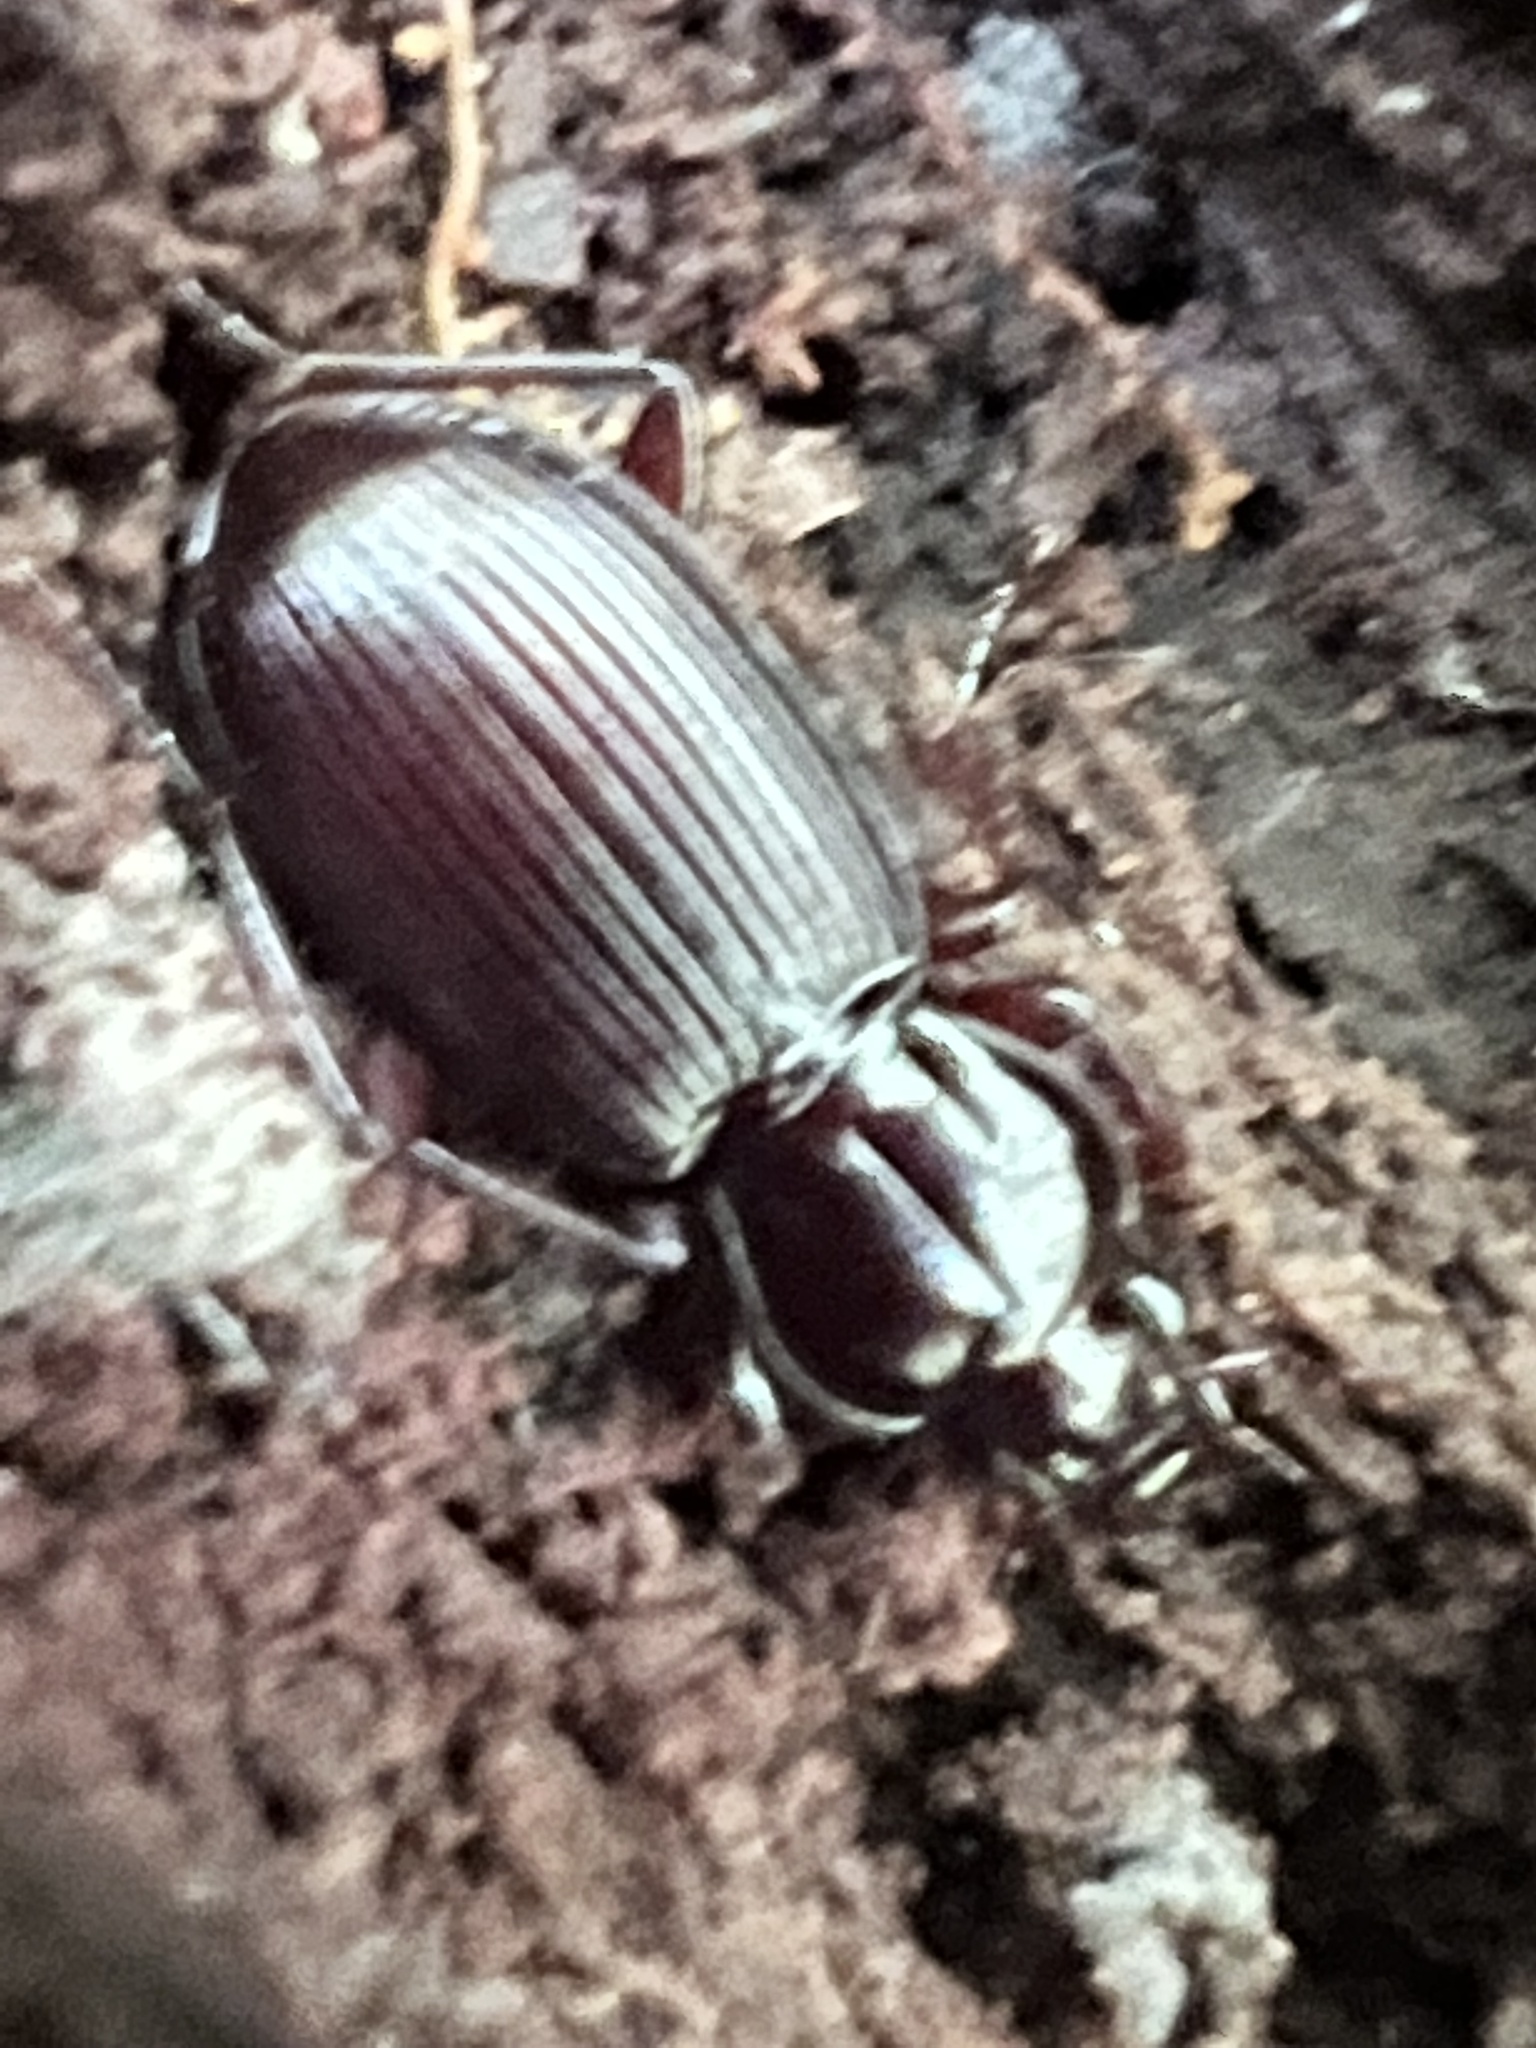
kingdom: Animalia
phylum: Arthropoda
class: Insecta
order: Coleoptera
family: Carabidae
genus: Gastrellarius
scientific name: Gastrellarius honestus
